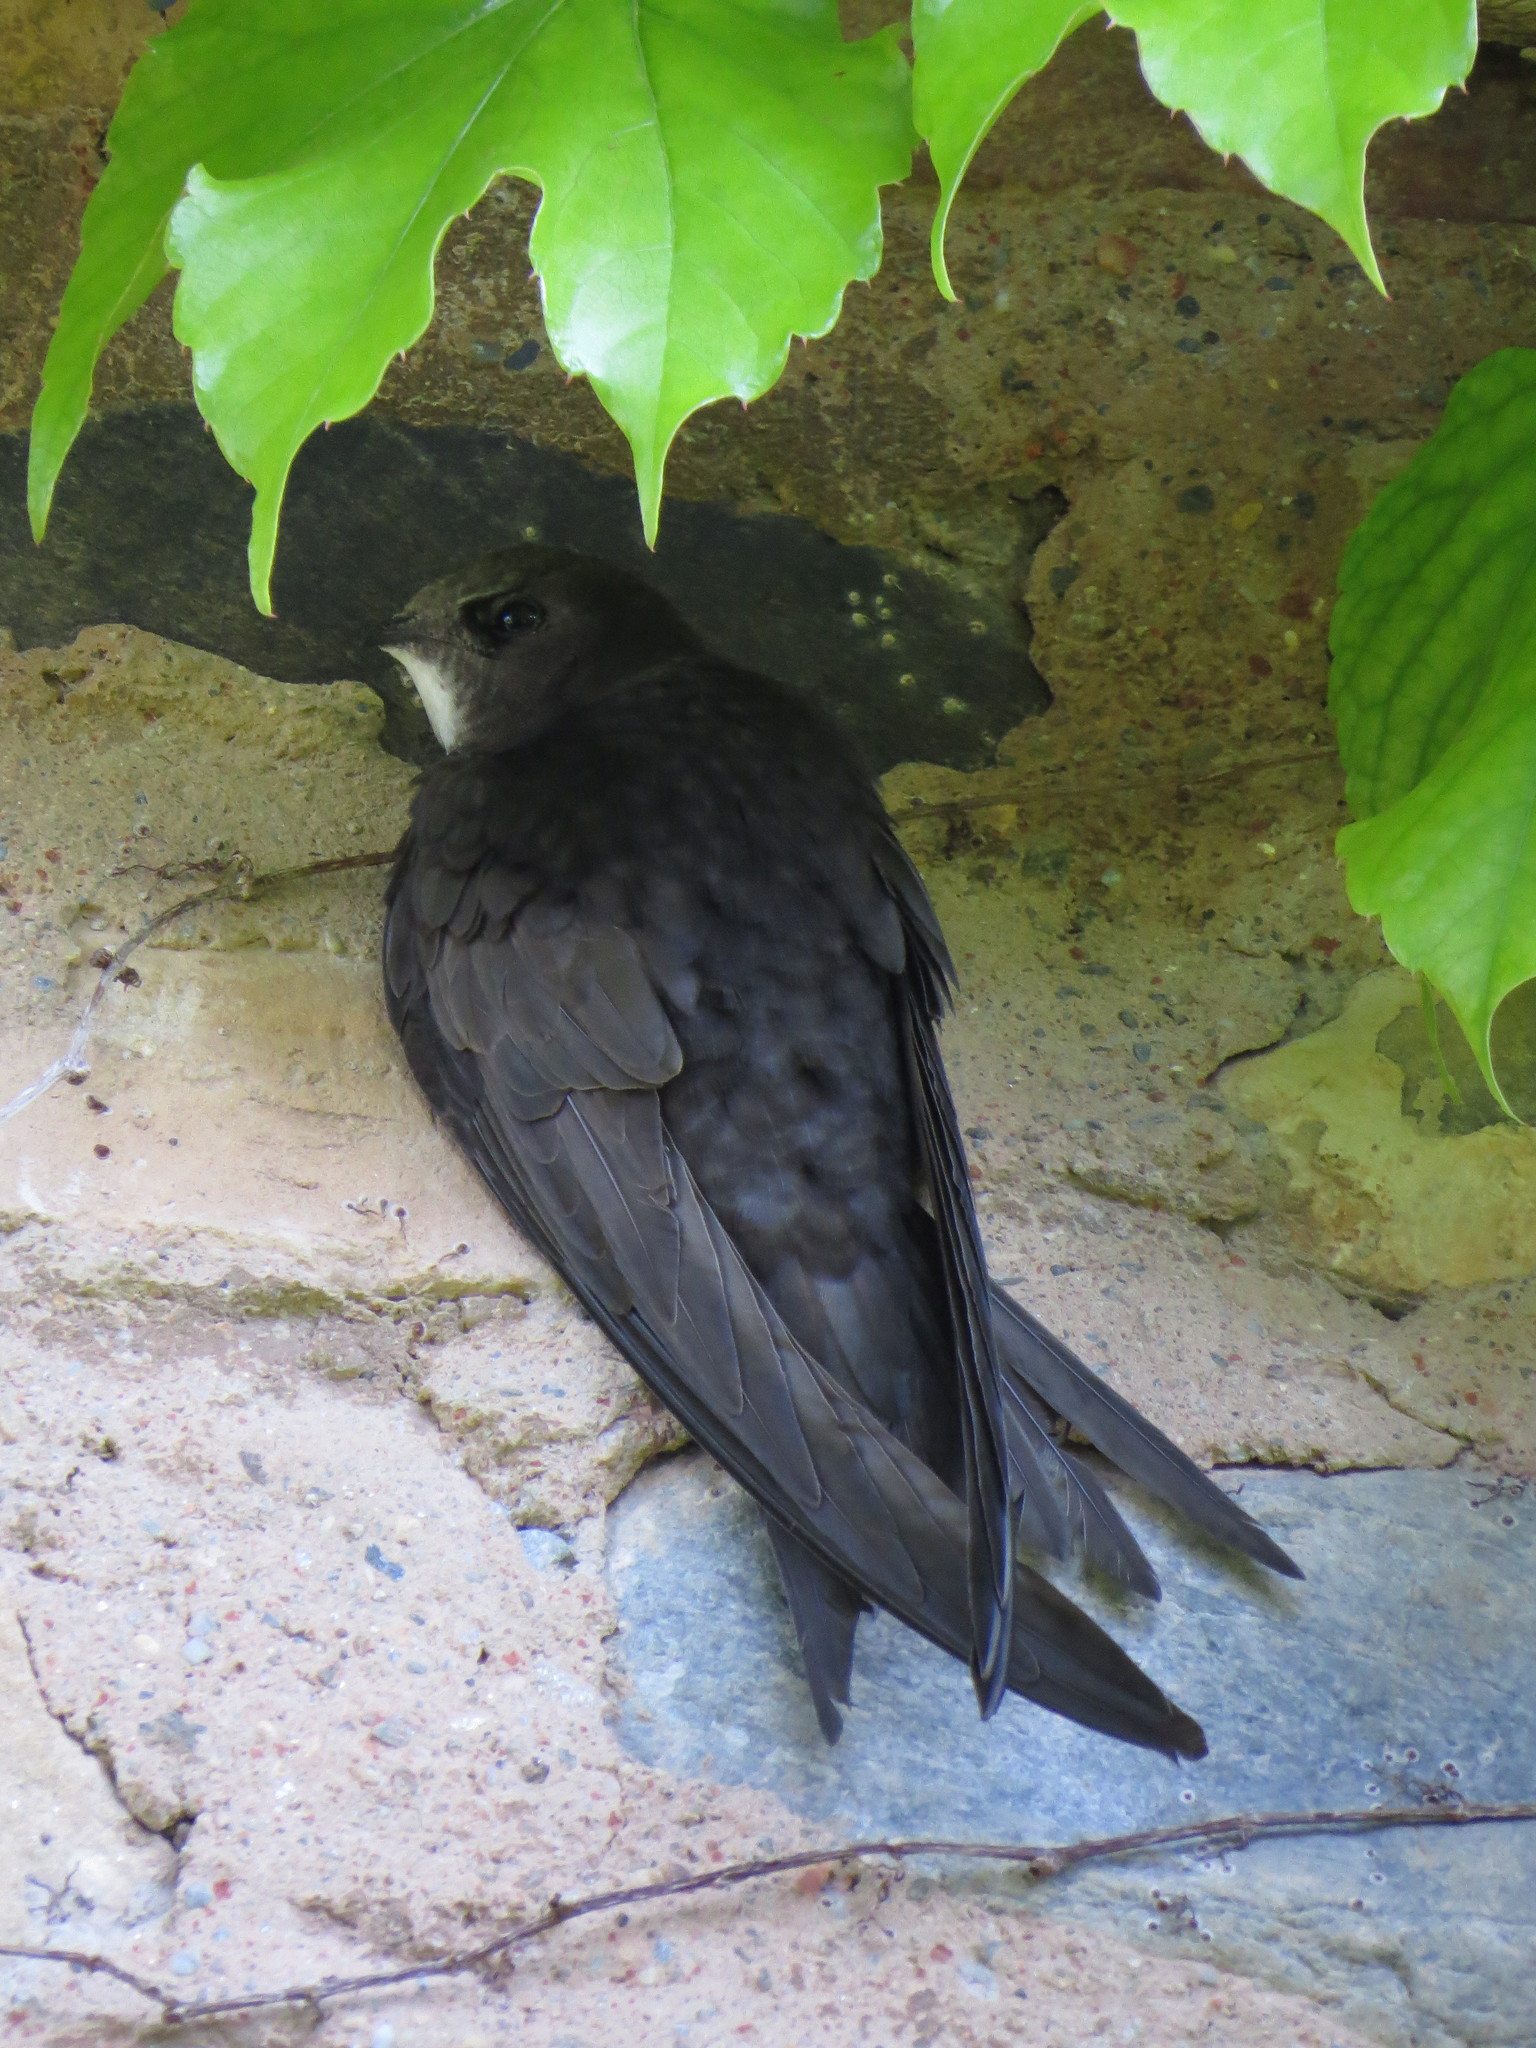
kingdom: Animalia
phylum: Chordata
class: Aves
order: Apodiformes
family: Apodidae
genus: Apus
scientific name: Apus apus
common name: Common swift
